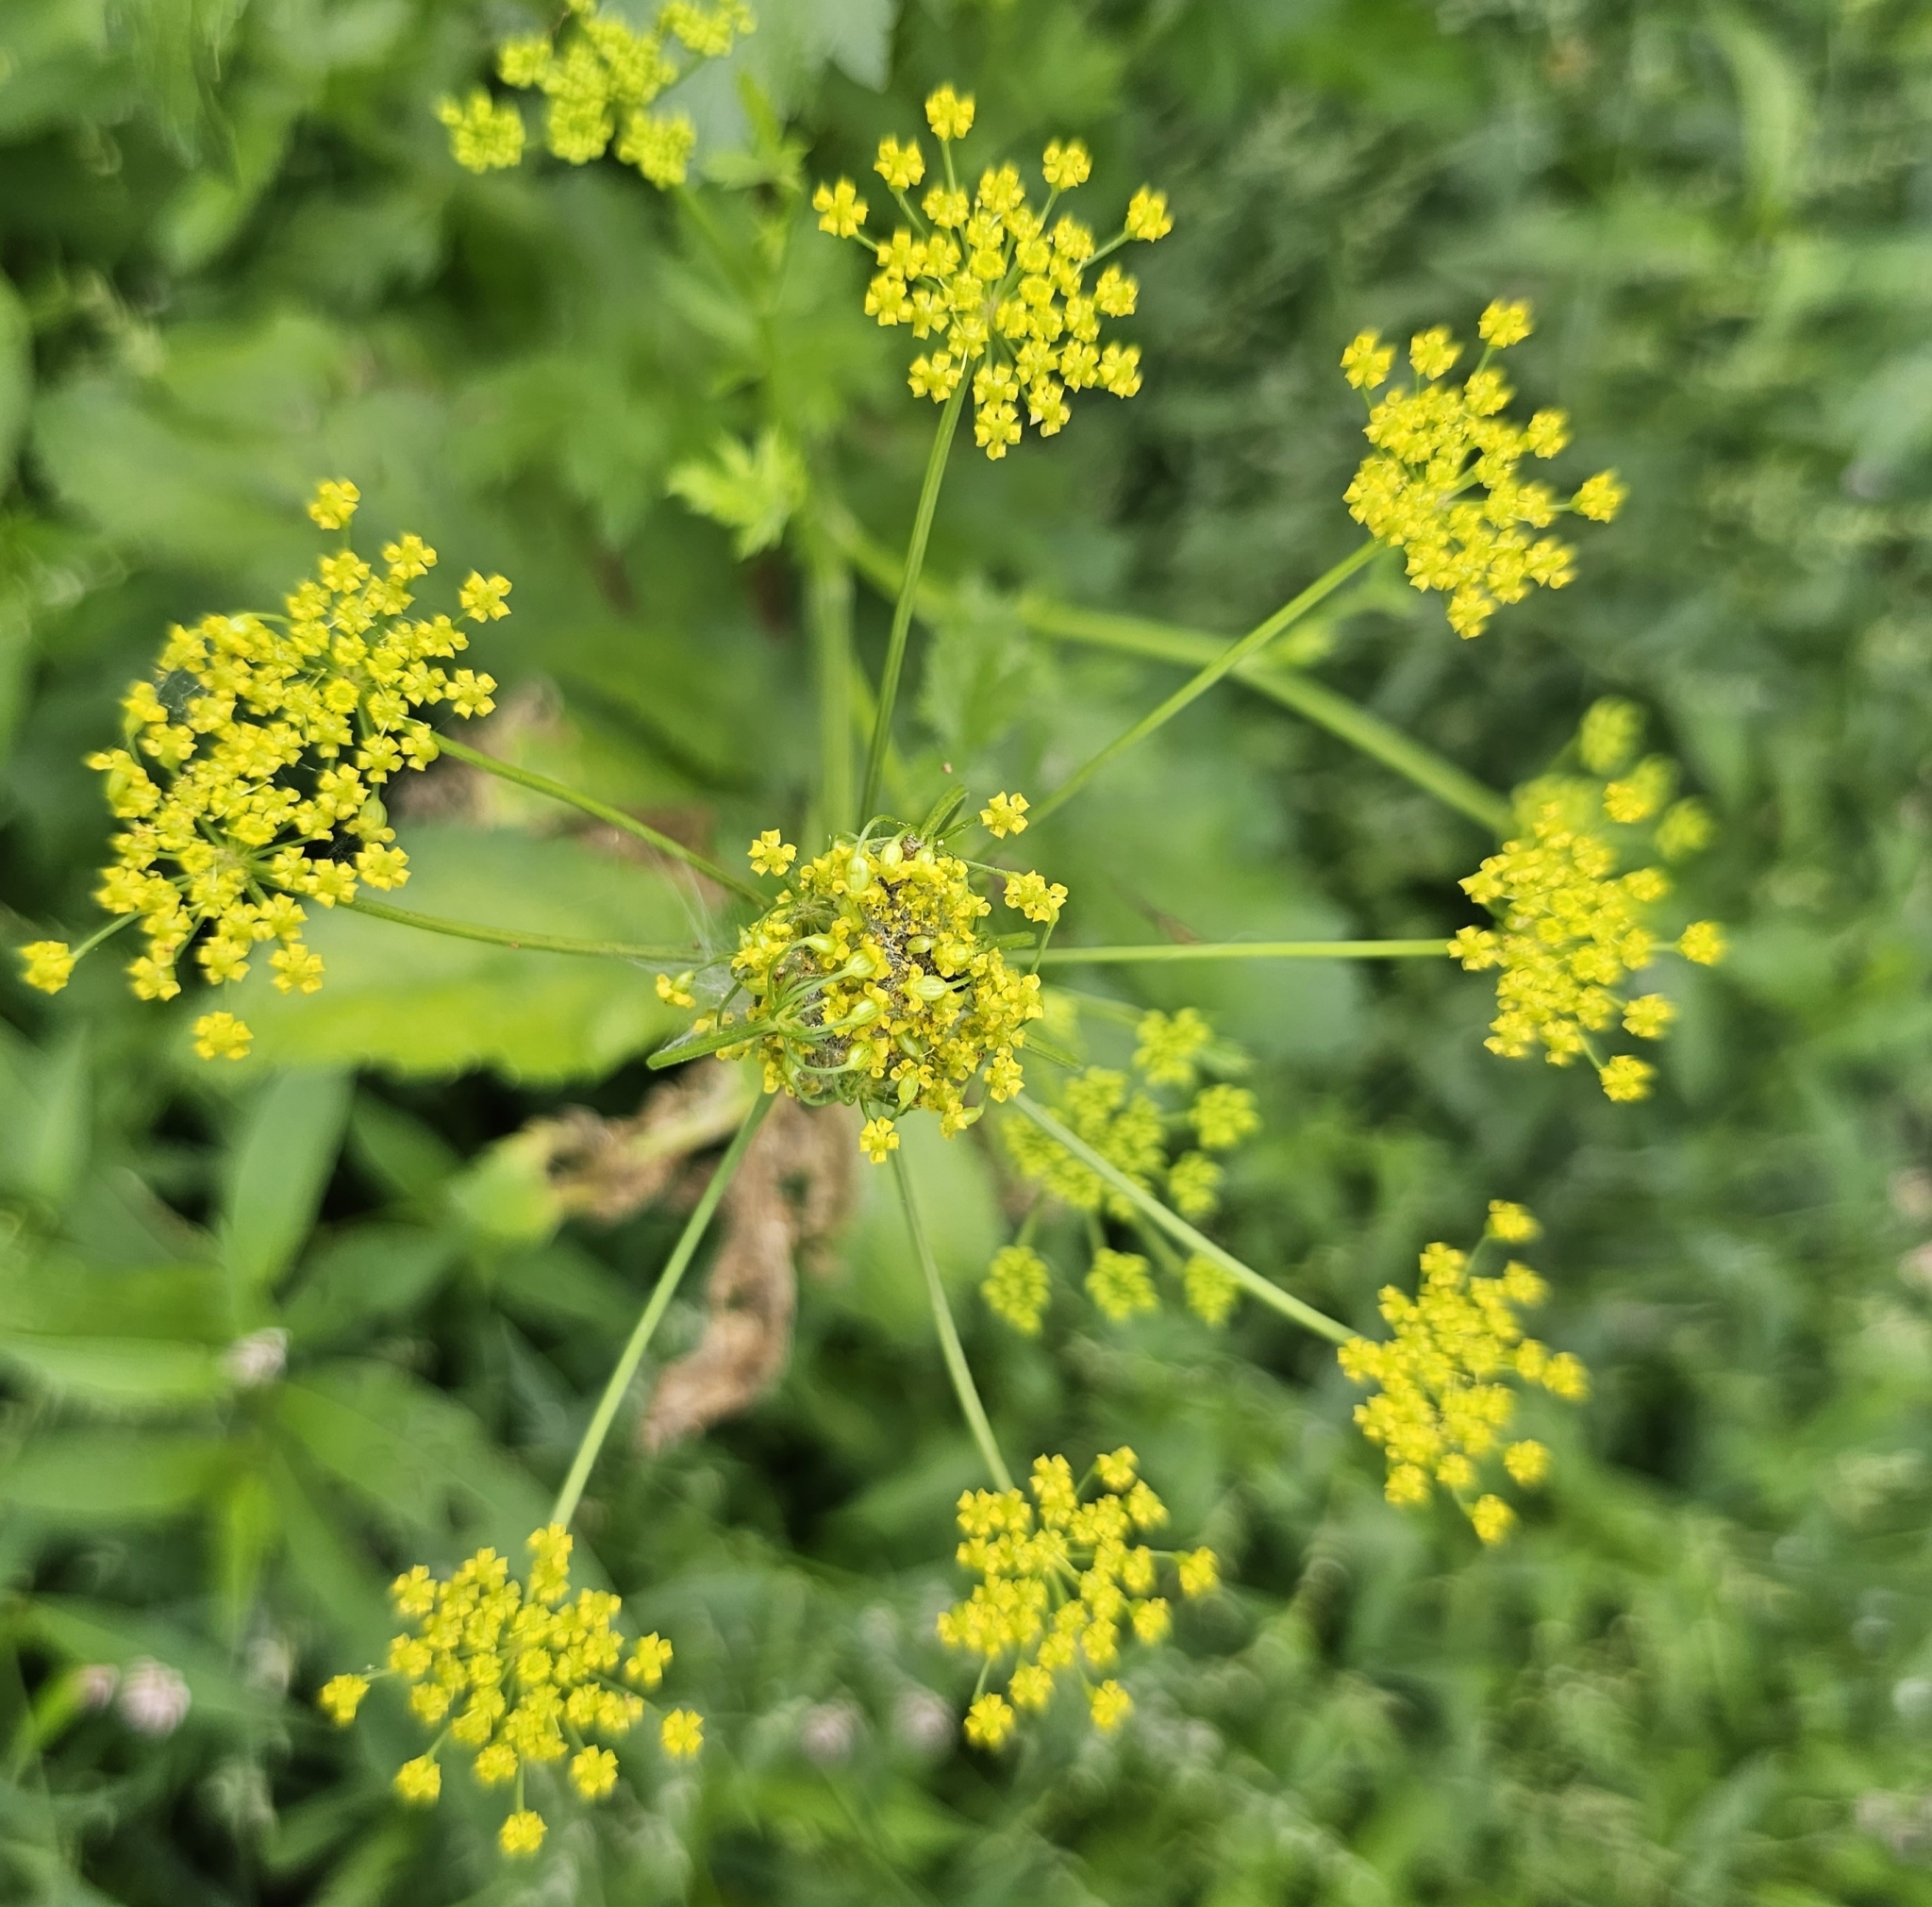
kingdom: Plantae
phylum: Tracheophyta
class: Magnoliopsida
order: Apiales
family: Apiaceae
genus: Pastinaca
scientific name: Pastinaca sativa
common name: Wild parsnip
